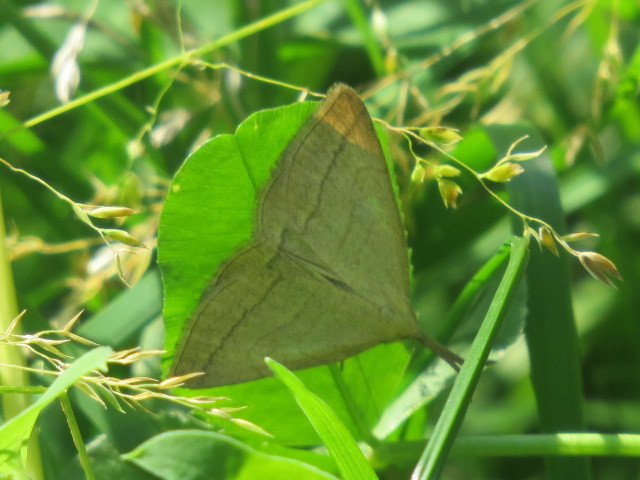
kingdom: Animalia
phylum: Arthropoda
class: Insecta
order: Lepidoptera
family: Erebidae
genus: Polypogon
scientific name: Polypogon tentacularia
